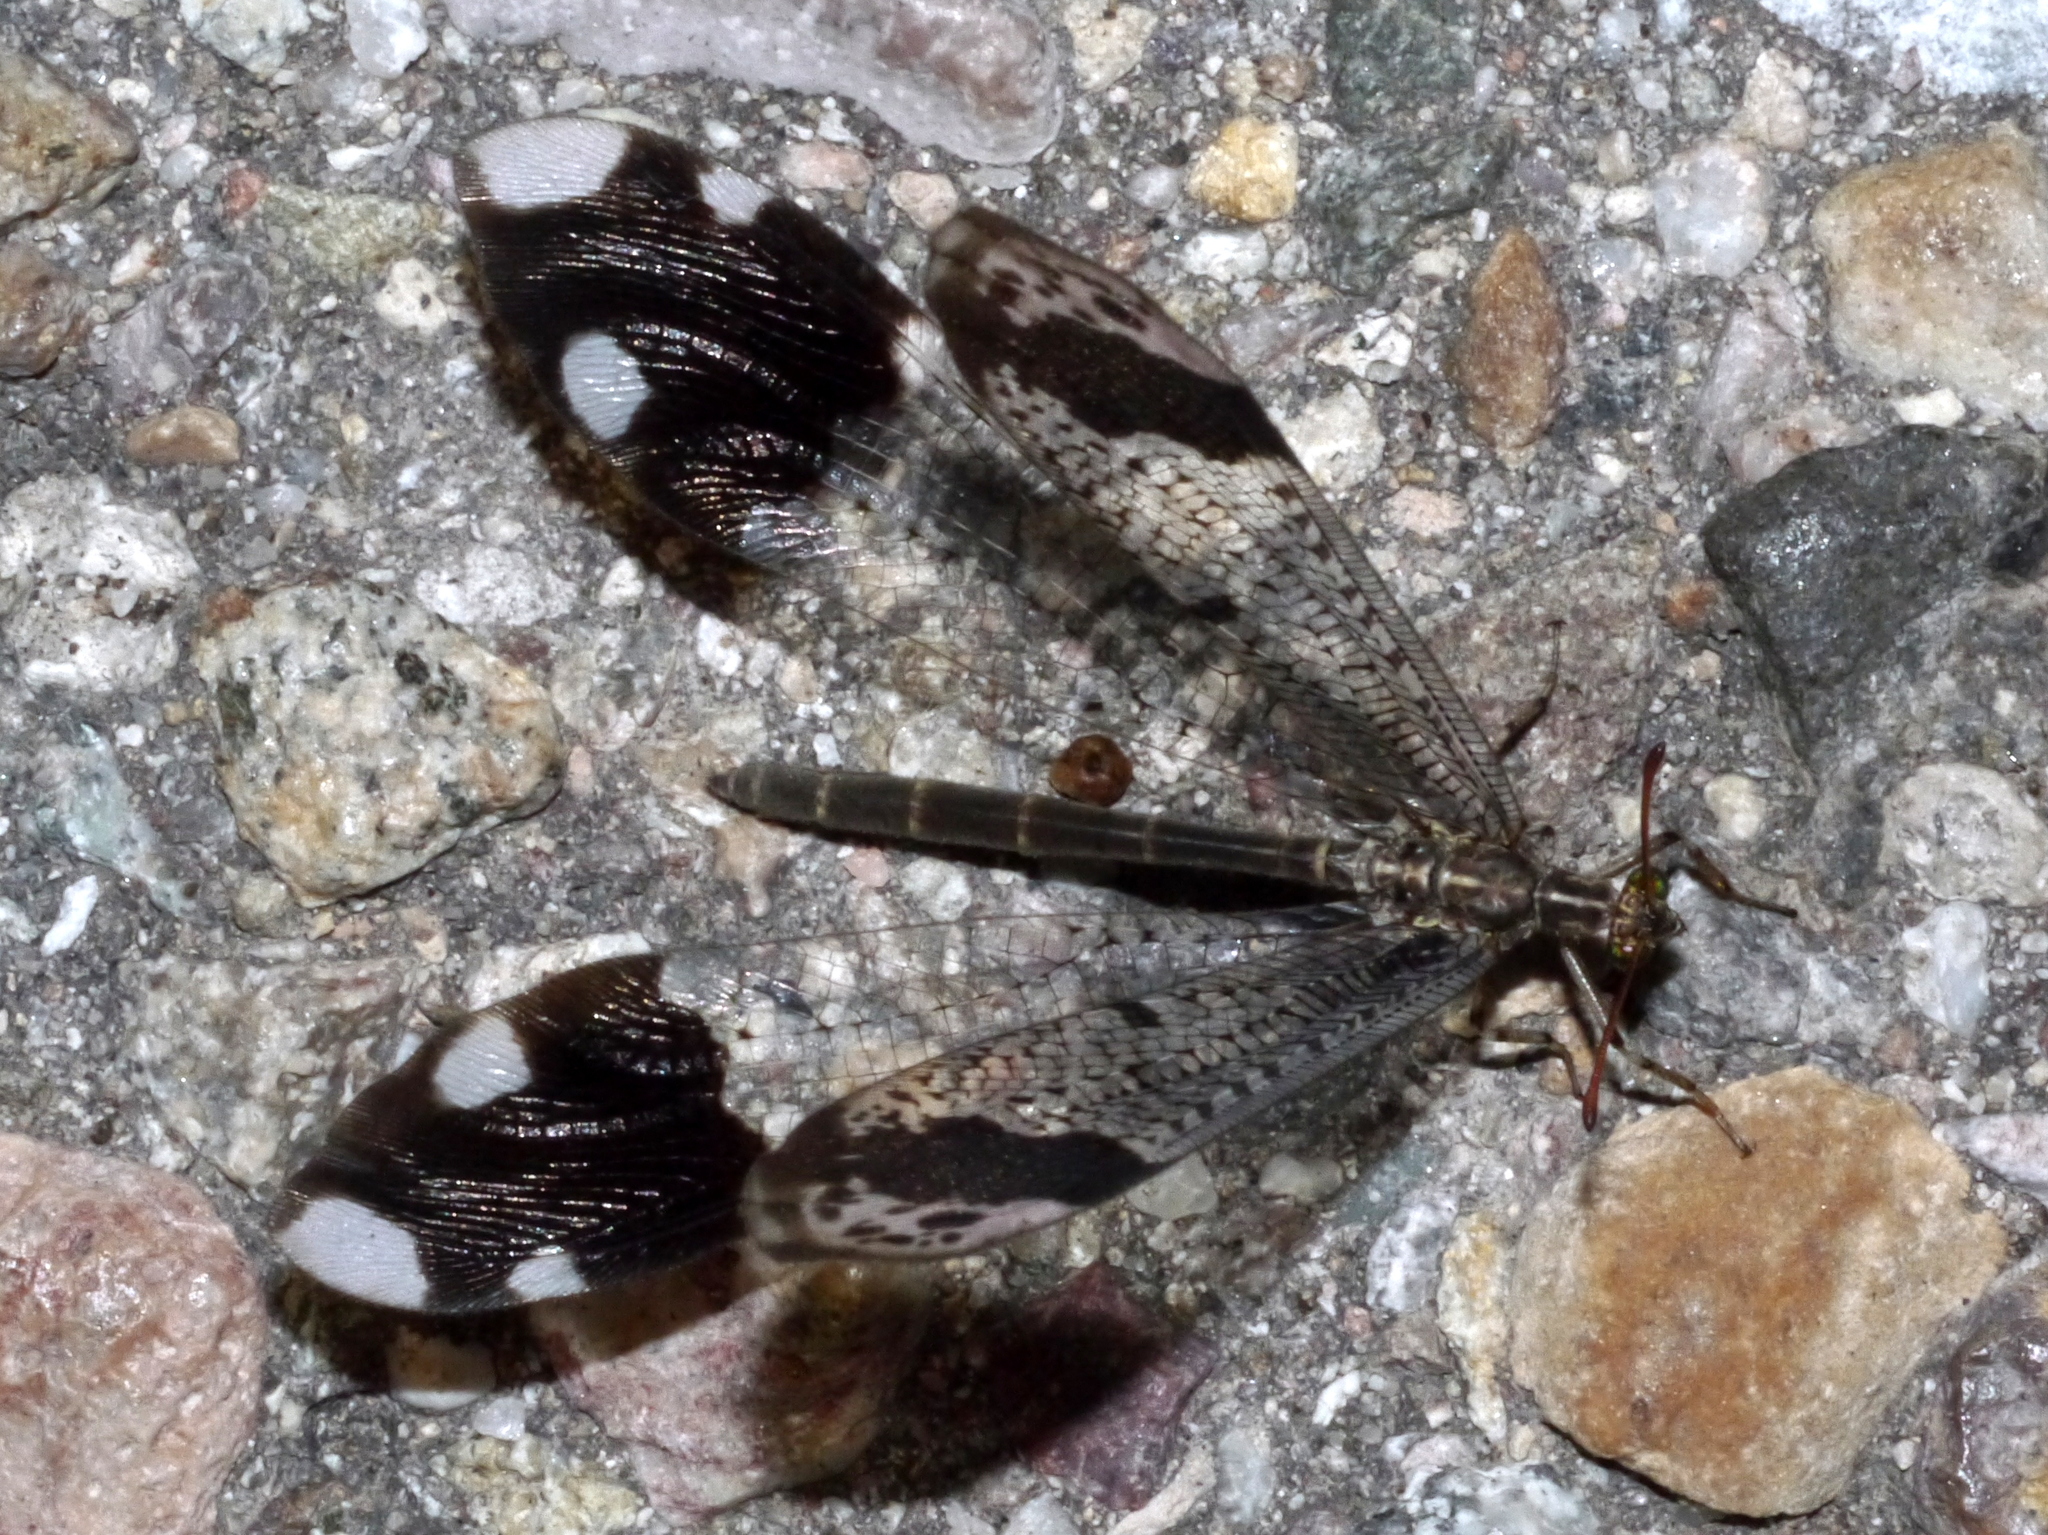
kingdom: Animalia
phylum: Arthropoda
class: Insecta
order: Neuroptera
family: Myrmeleontidae
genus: Glenurus
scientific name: Glenurus luniger
